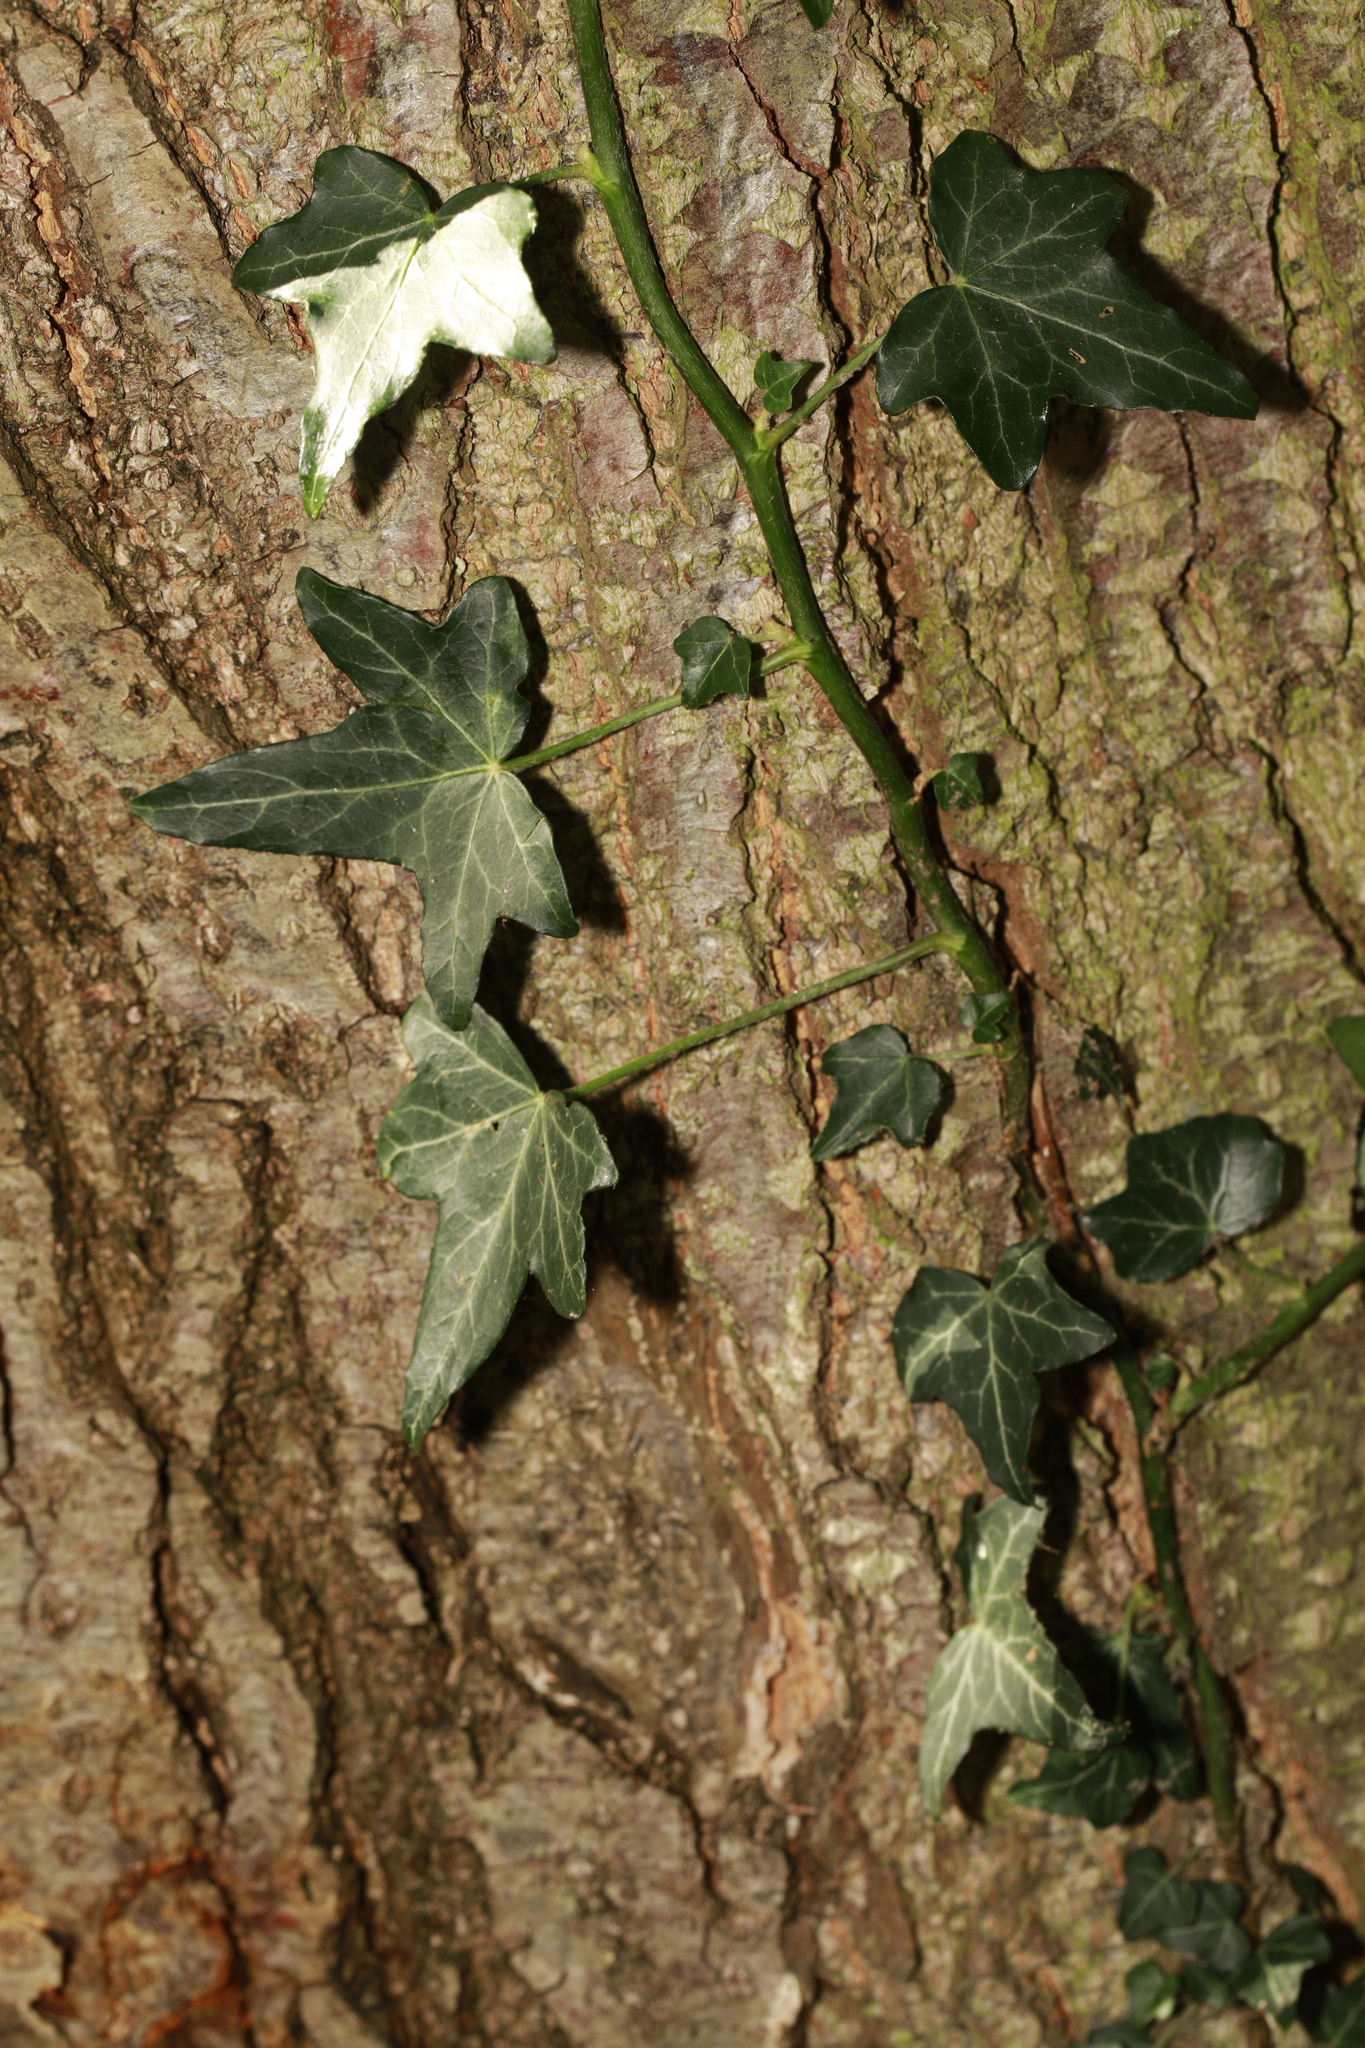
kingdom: Plantae
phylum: Tracheophyta
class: Magnoliopsida
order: Apiales
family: Araliaceae
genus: Hedera
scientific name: Hedera helix
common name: Ivy
